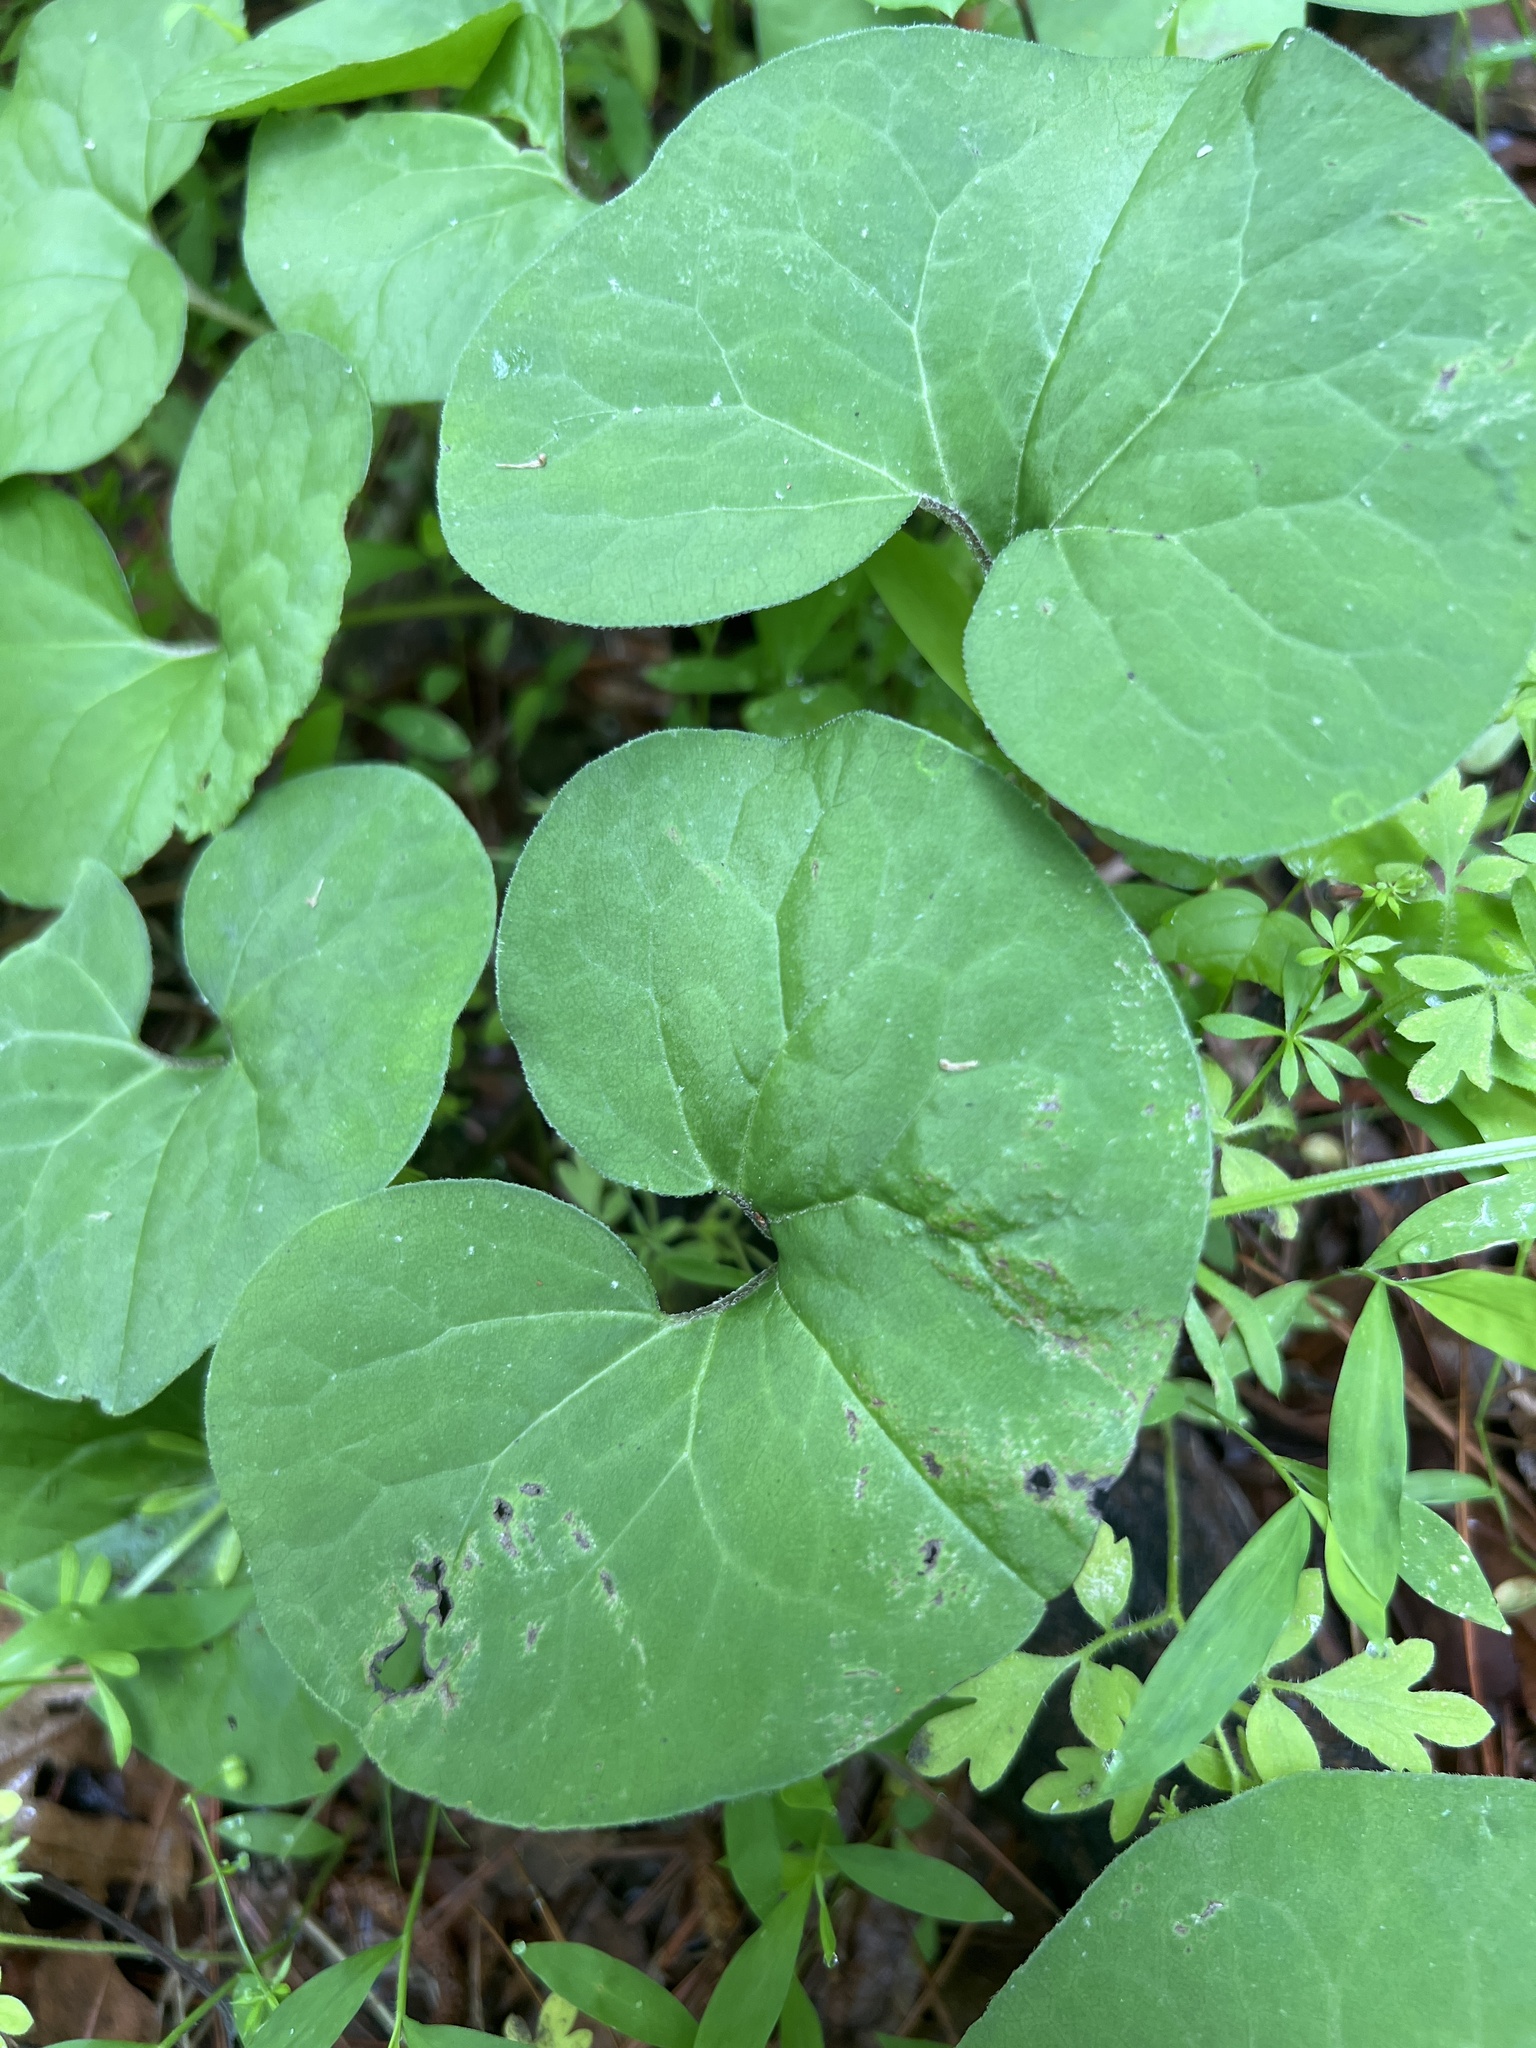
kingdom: Plantae
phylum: Tracheophyta
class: Magnoliopsida
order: Piperales
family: Aristolochiaceae
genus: Asarum
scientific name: Asarum canadense
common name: Wild ginger
